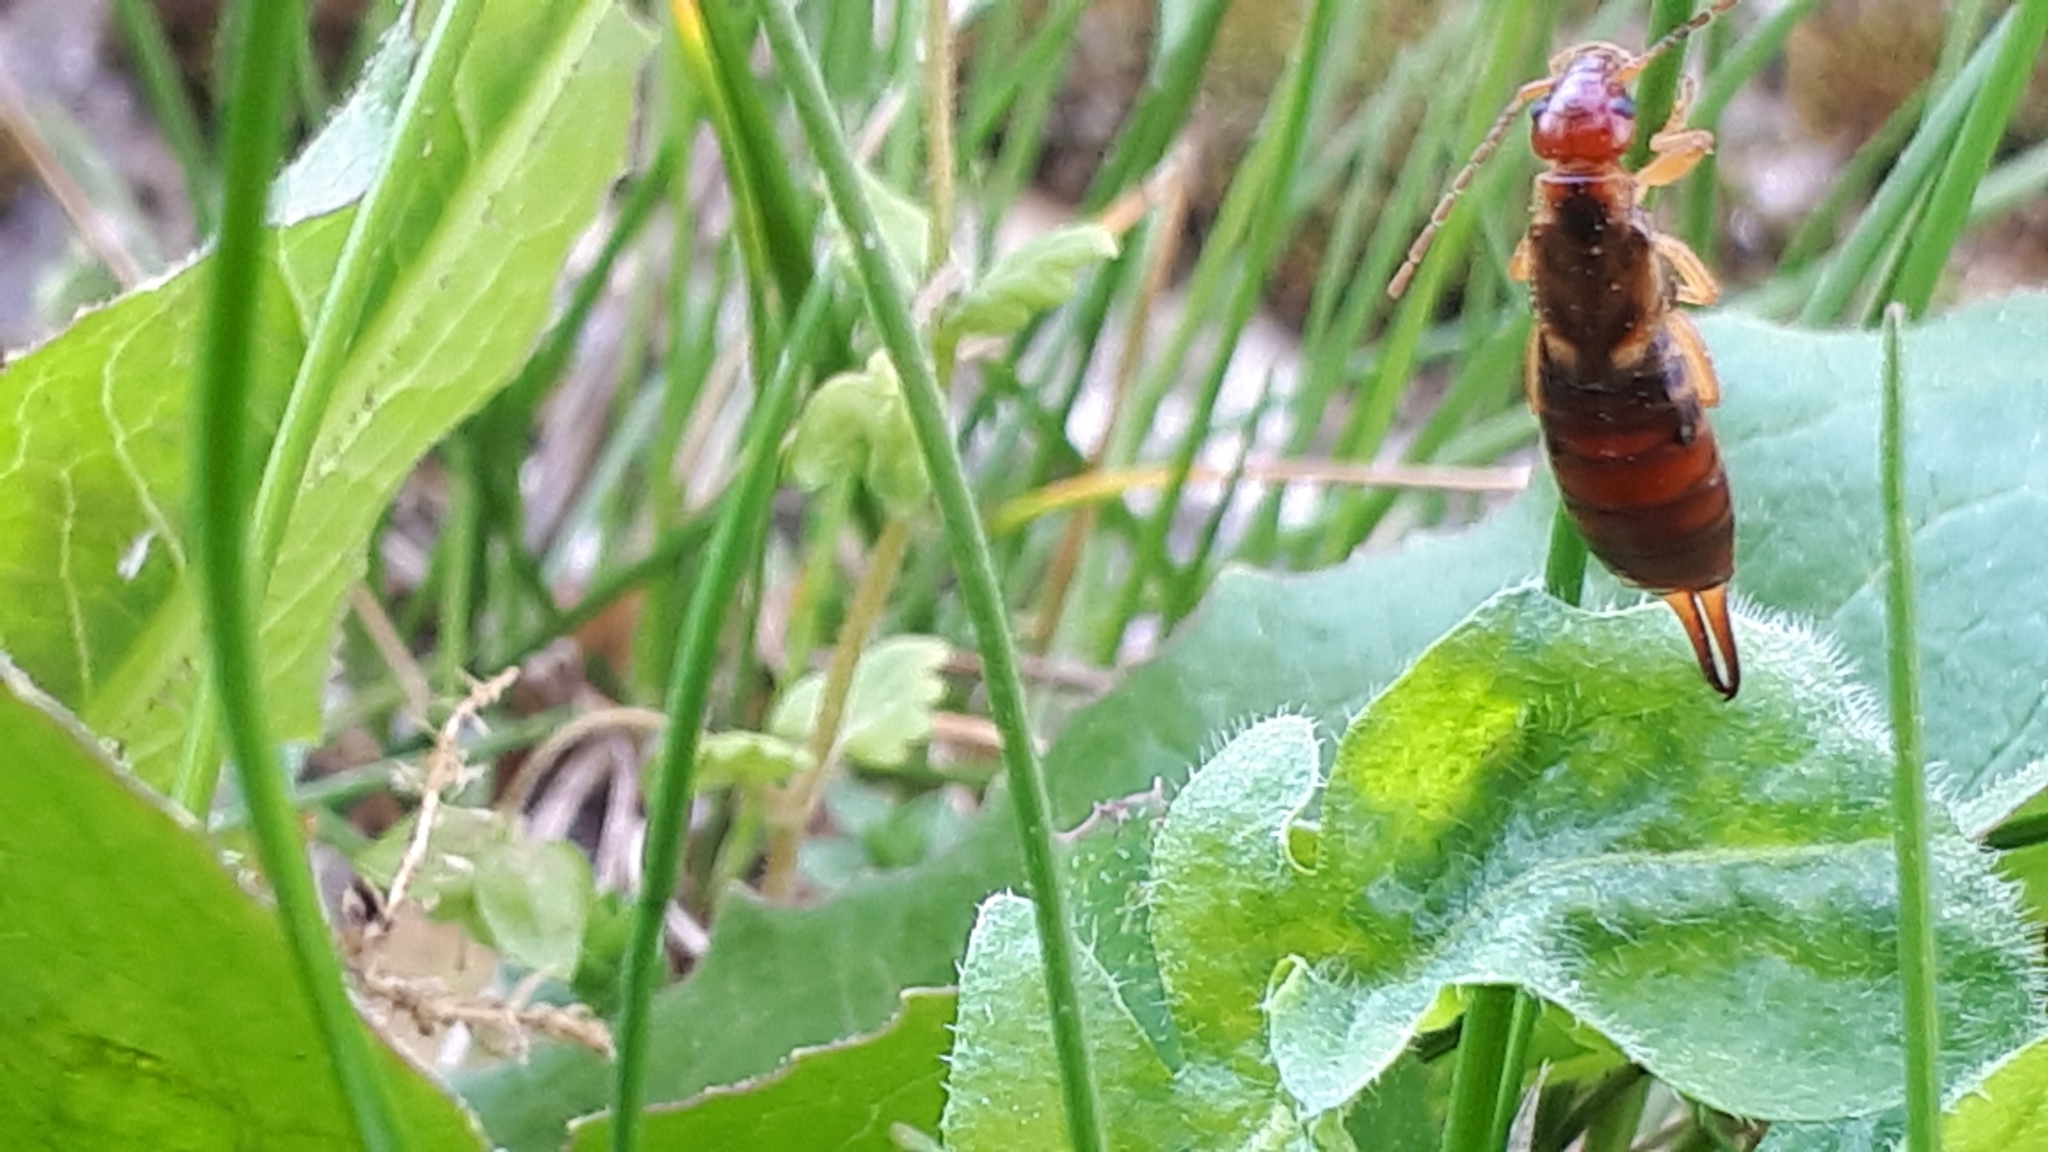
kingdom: Animalia
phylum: Arthropoda
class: Insecta
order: Dermaptera
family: Forficulidae
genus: Forficula
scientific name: Forficula
